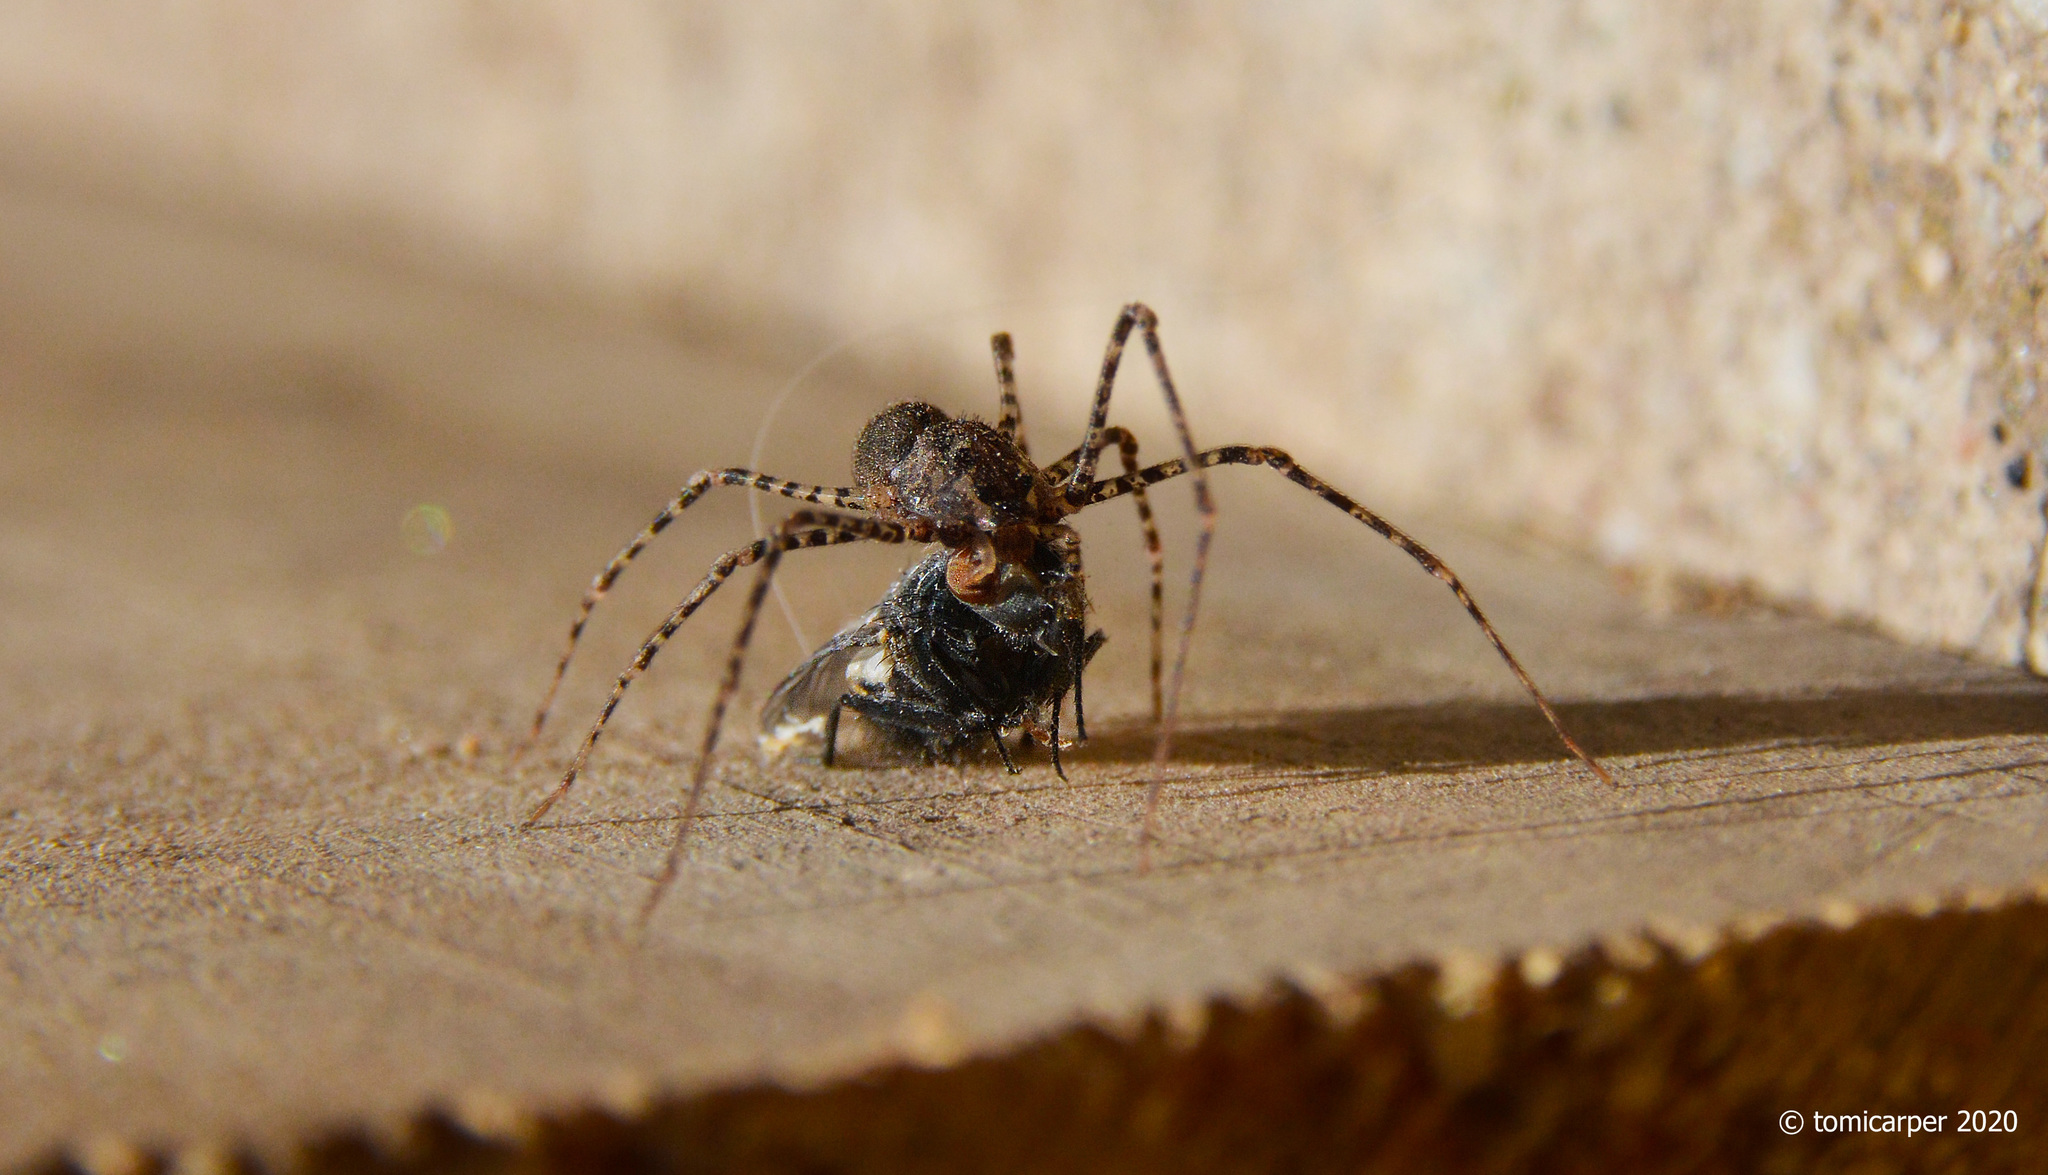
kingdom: Animalia
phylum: Arthropoda
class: Arachnida
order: Araneae
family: Scytodidae
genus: Scytodes
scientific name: Scytodes globula
